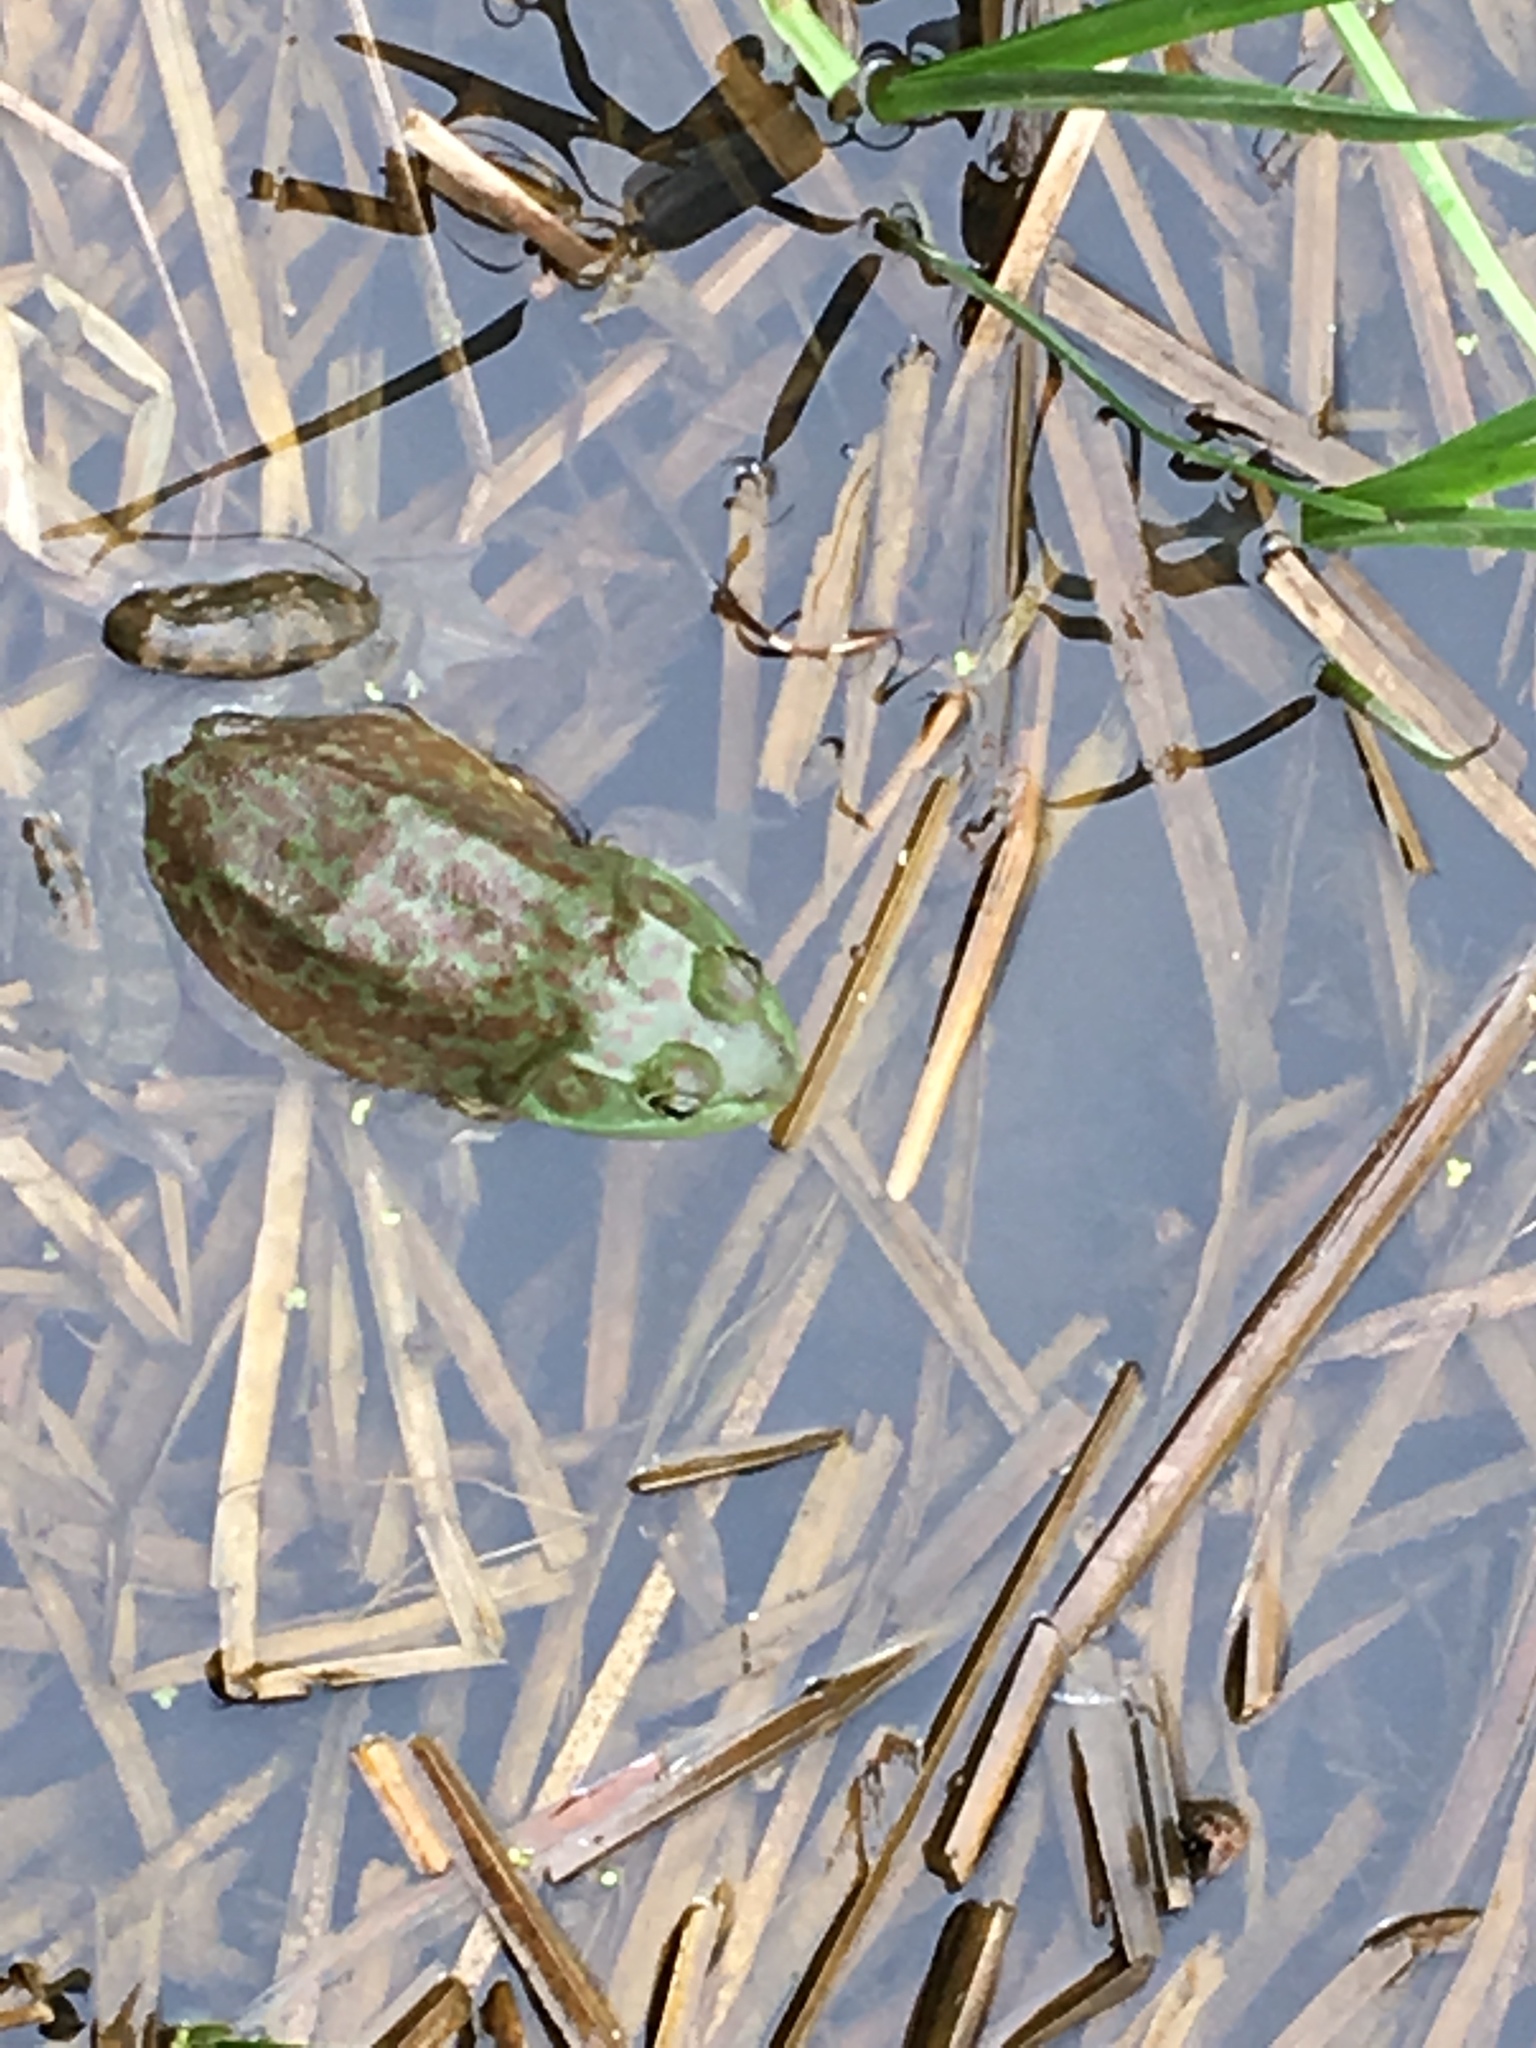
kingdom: Animalia
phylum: Chordata
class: Amphibia
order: Anura
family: Ranidae
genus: Lithobates
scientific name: Lithobates catesbeianus
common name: American bullfrog
